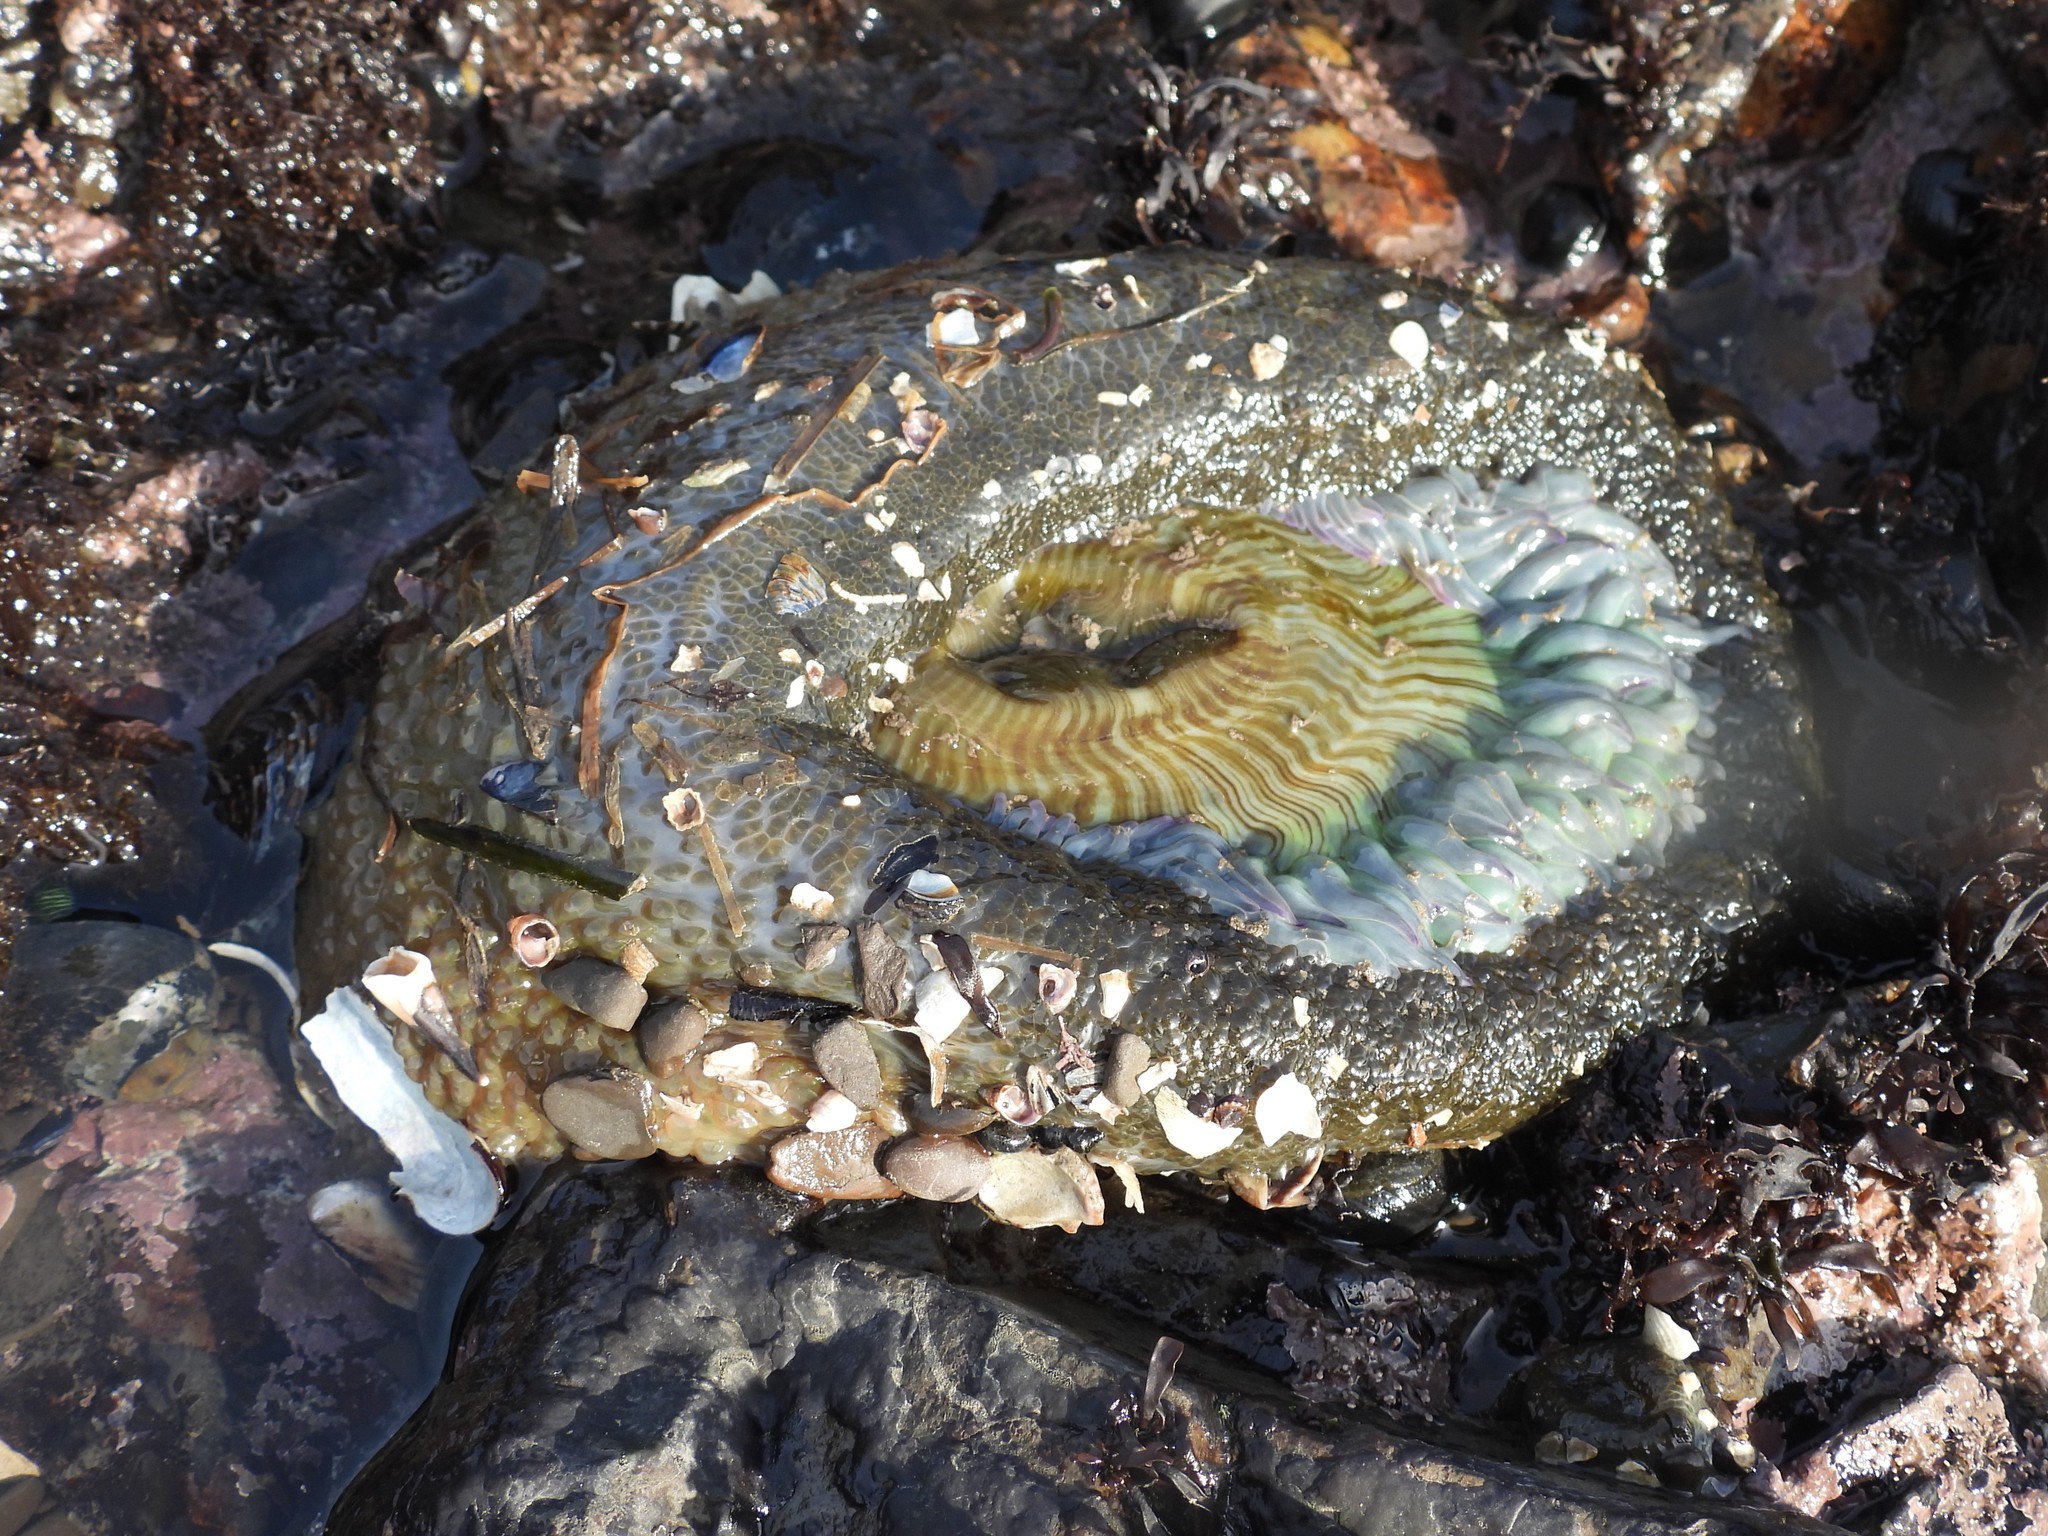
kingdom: Animalia
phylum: Cnidaria
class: Anthozoa
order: Actiniaria
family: Actiniidae
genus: Anthopleura
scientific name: Anthopleura sola
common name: Sun anemone
